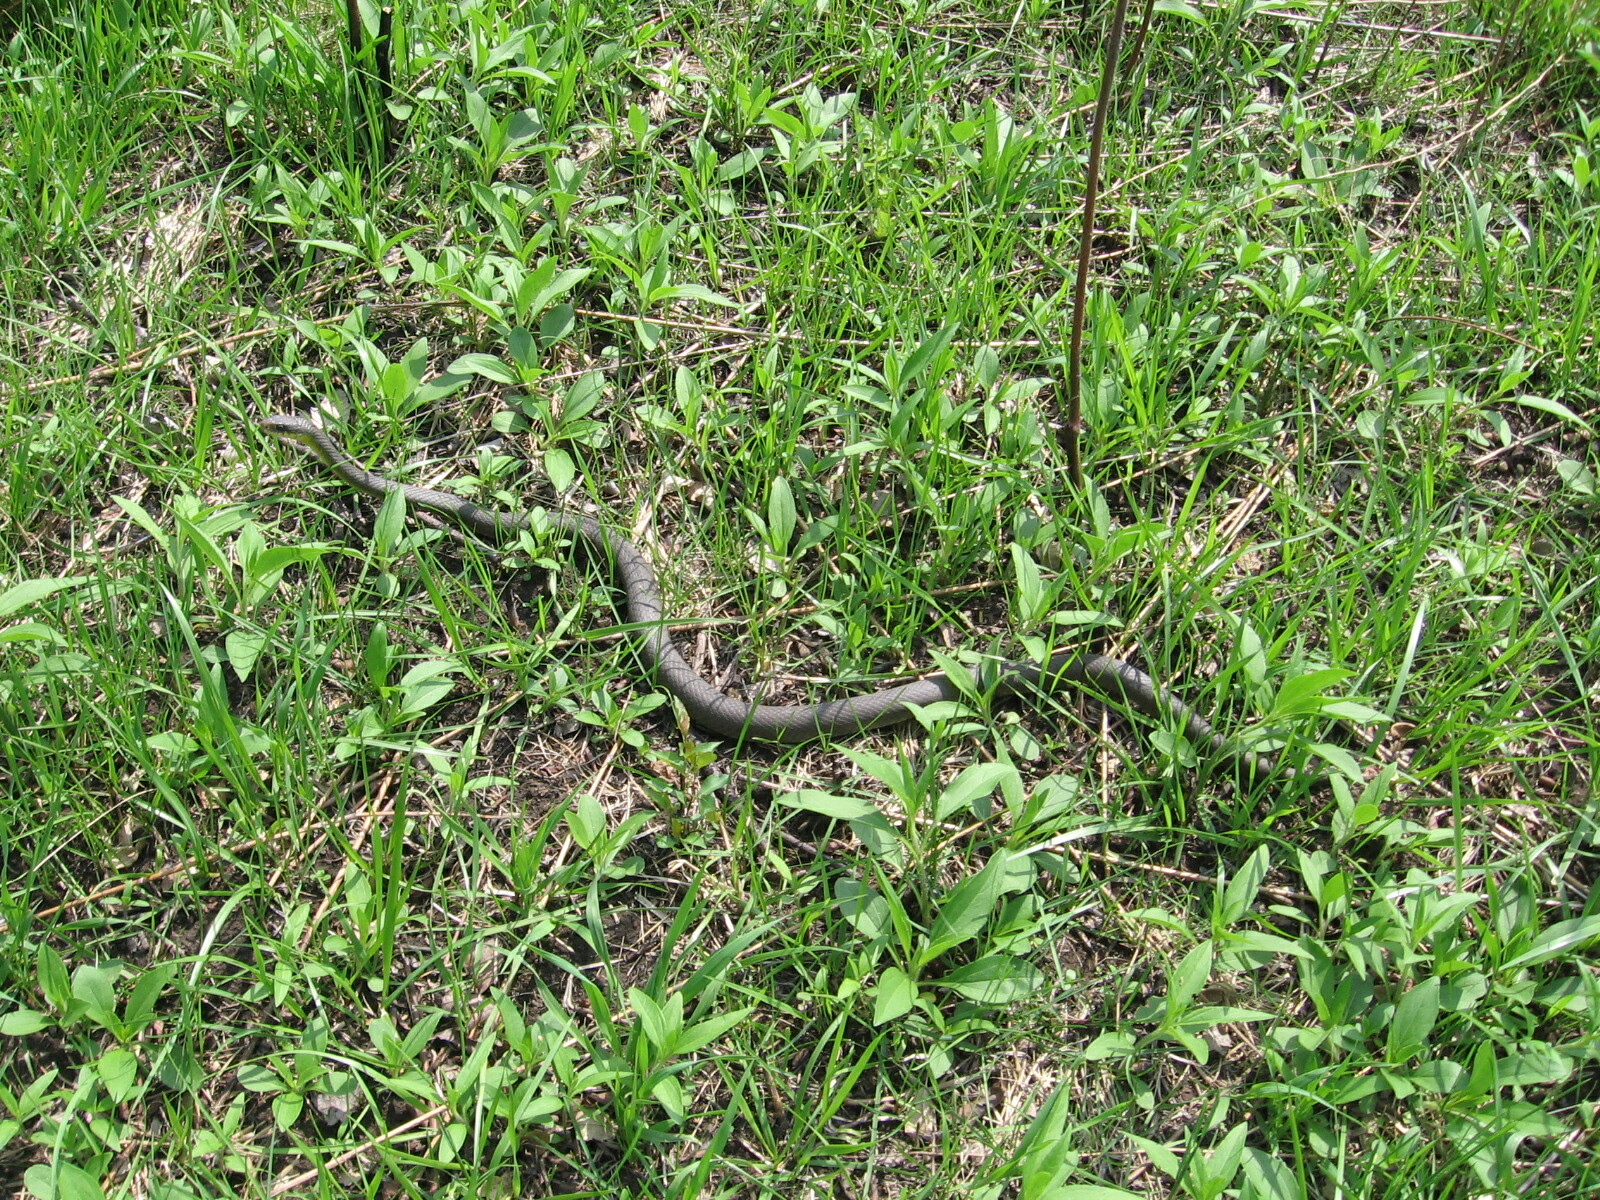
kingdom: Animalia
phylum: Chordata
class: Squamata
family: Colubridae
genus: Coluber
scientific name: Coluber constrictor
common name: Eastern racer
